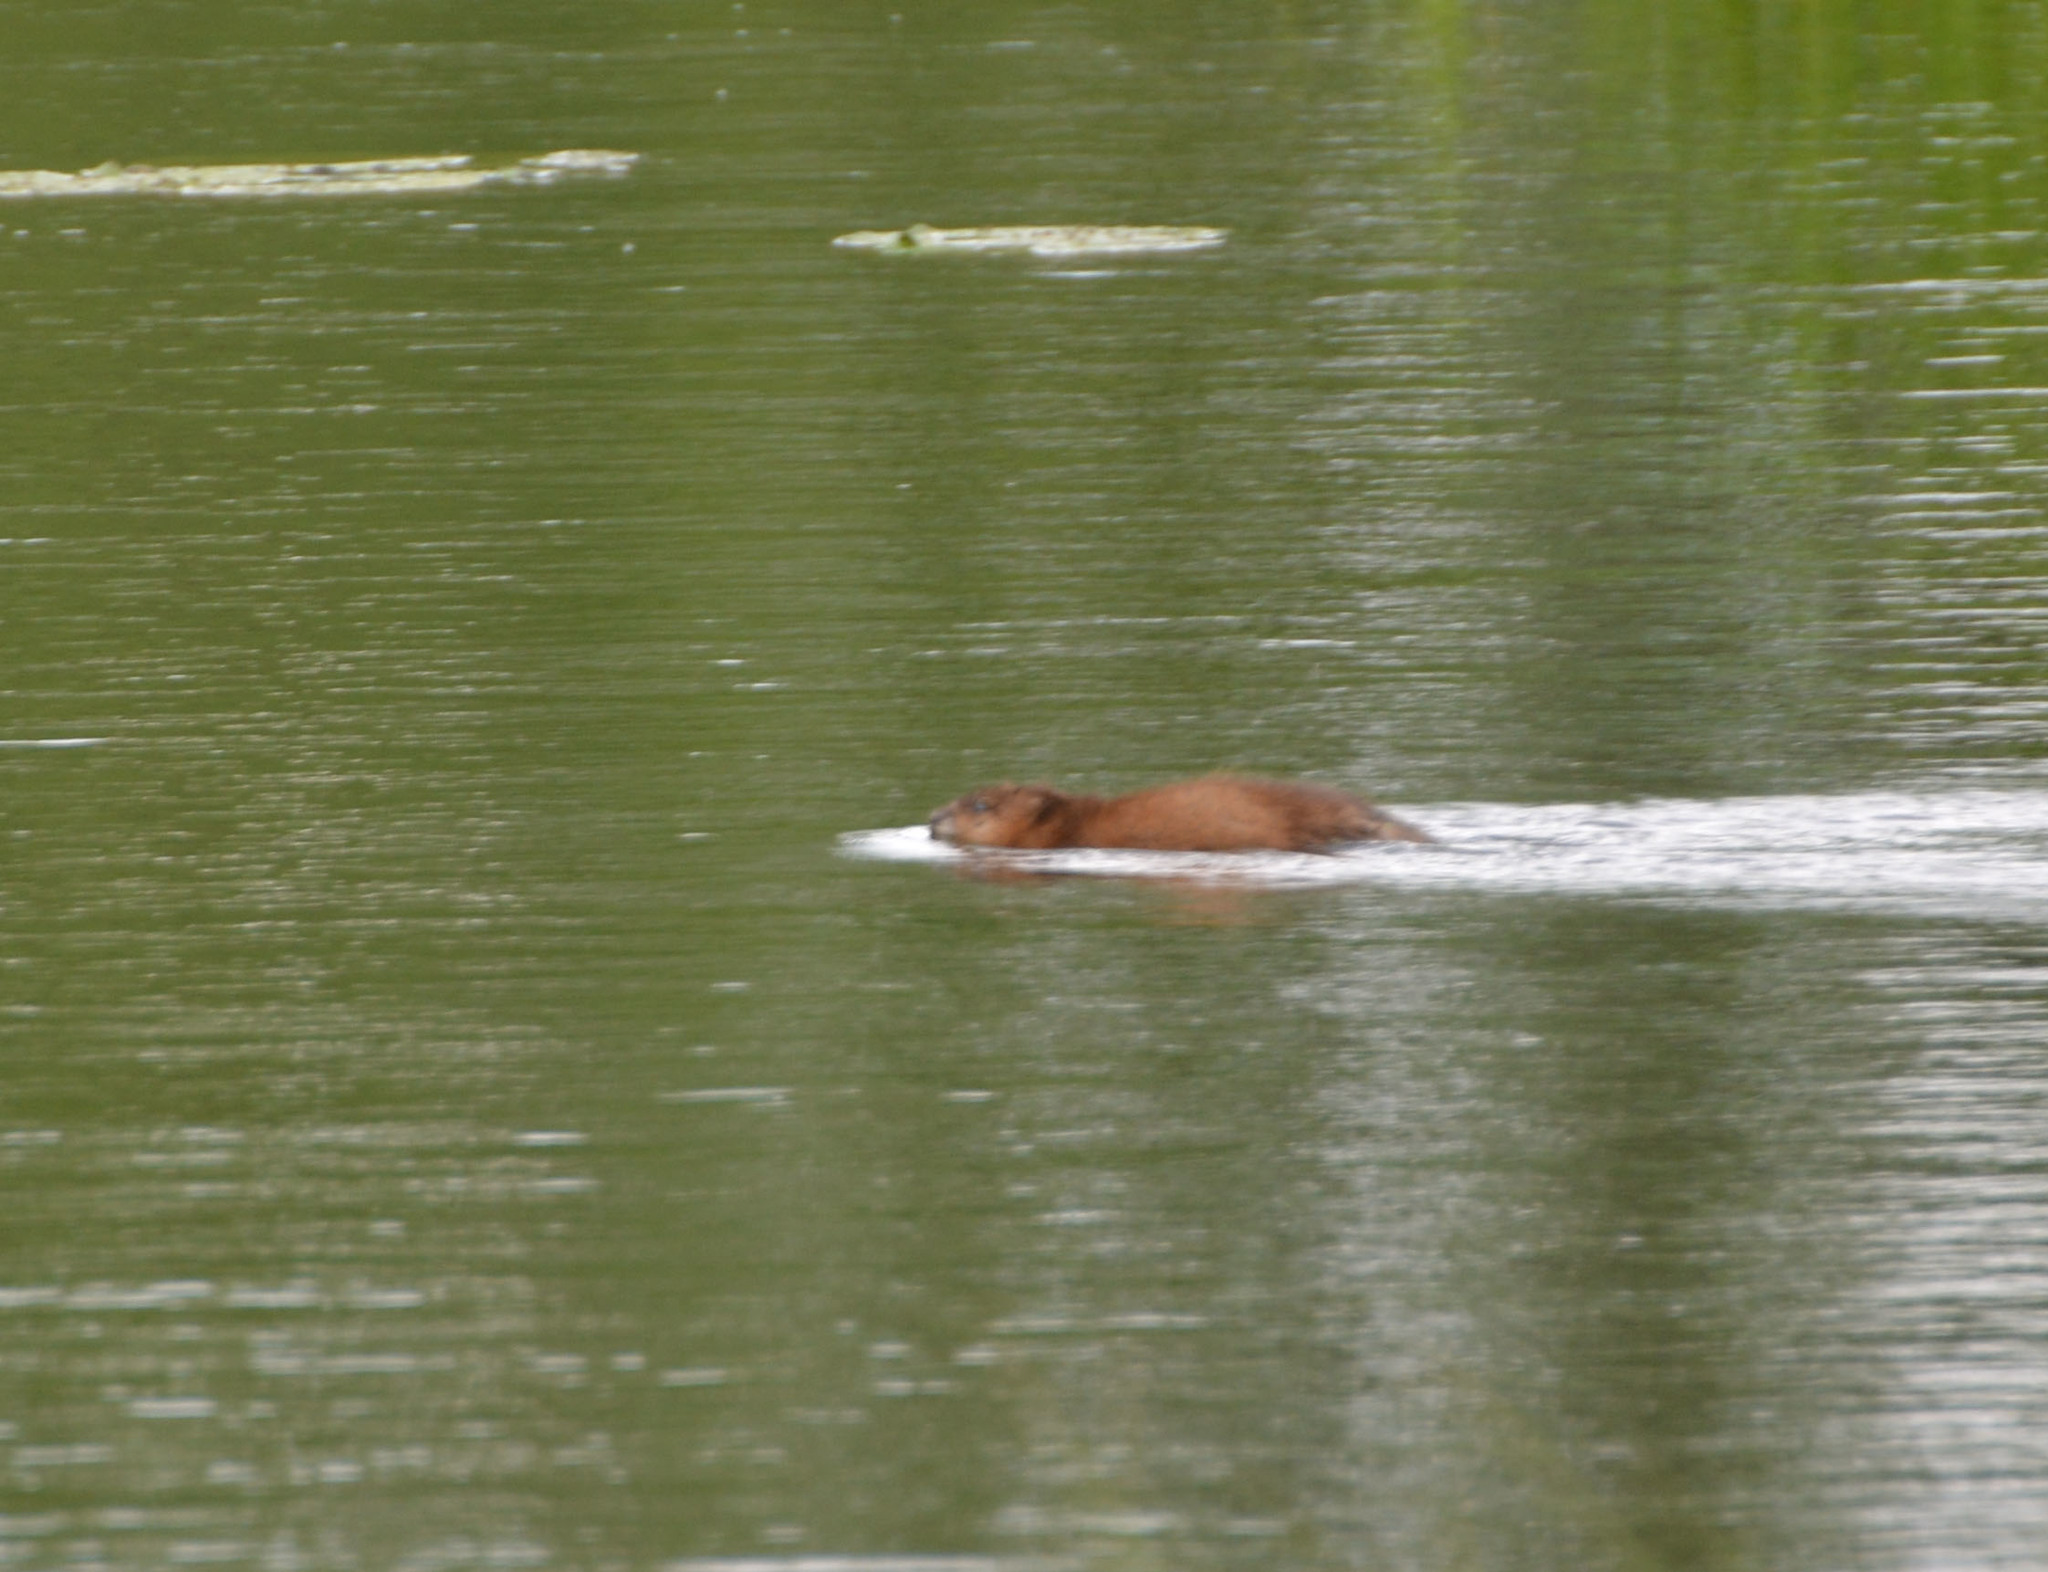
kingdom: Animalia
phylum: Chordata
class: Mammalia
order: Rodentia
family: Cricetidae
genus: Ondatra
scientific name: Ondatra zibethicus
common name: Muskrat
